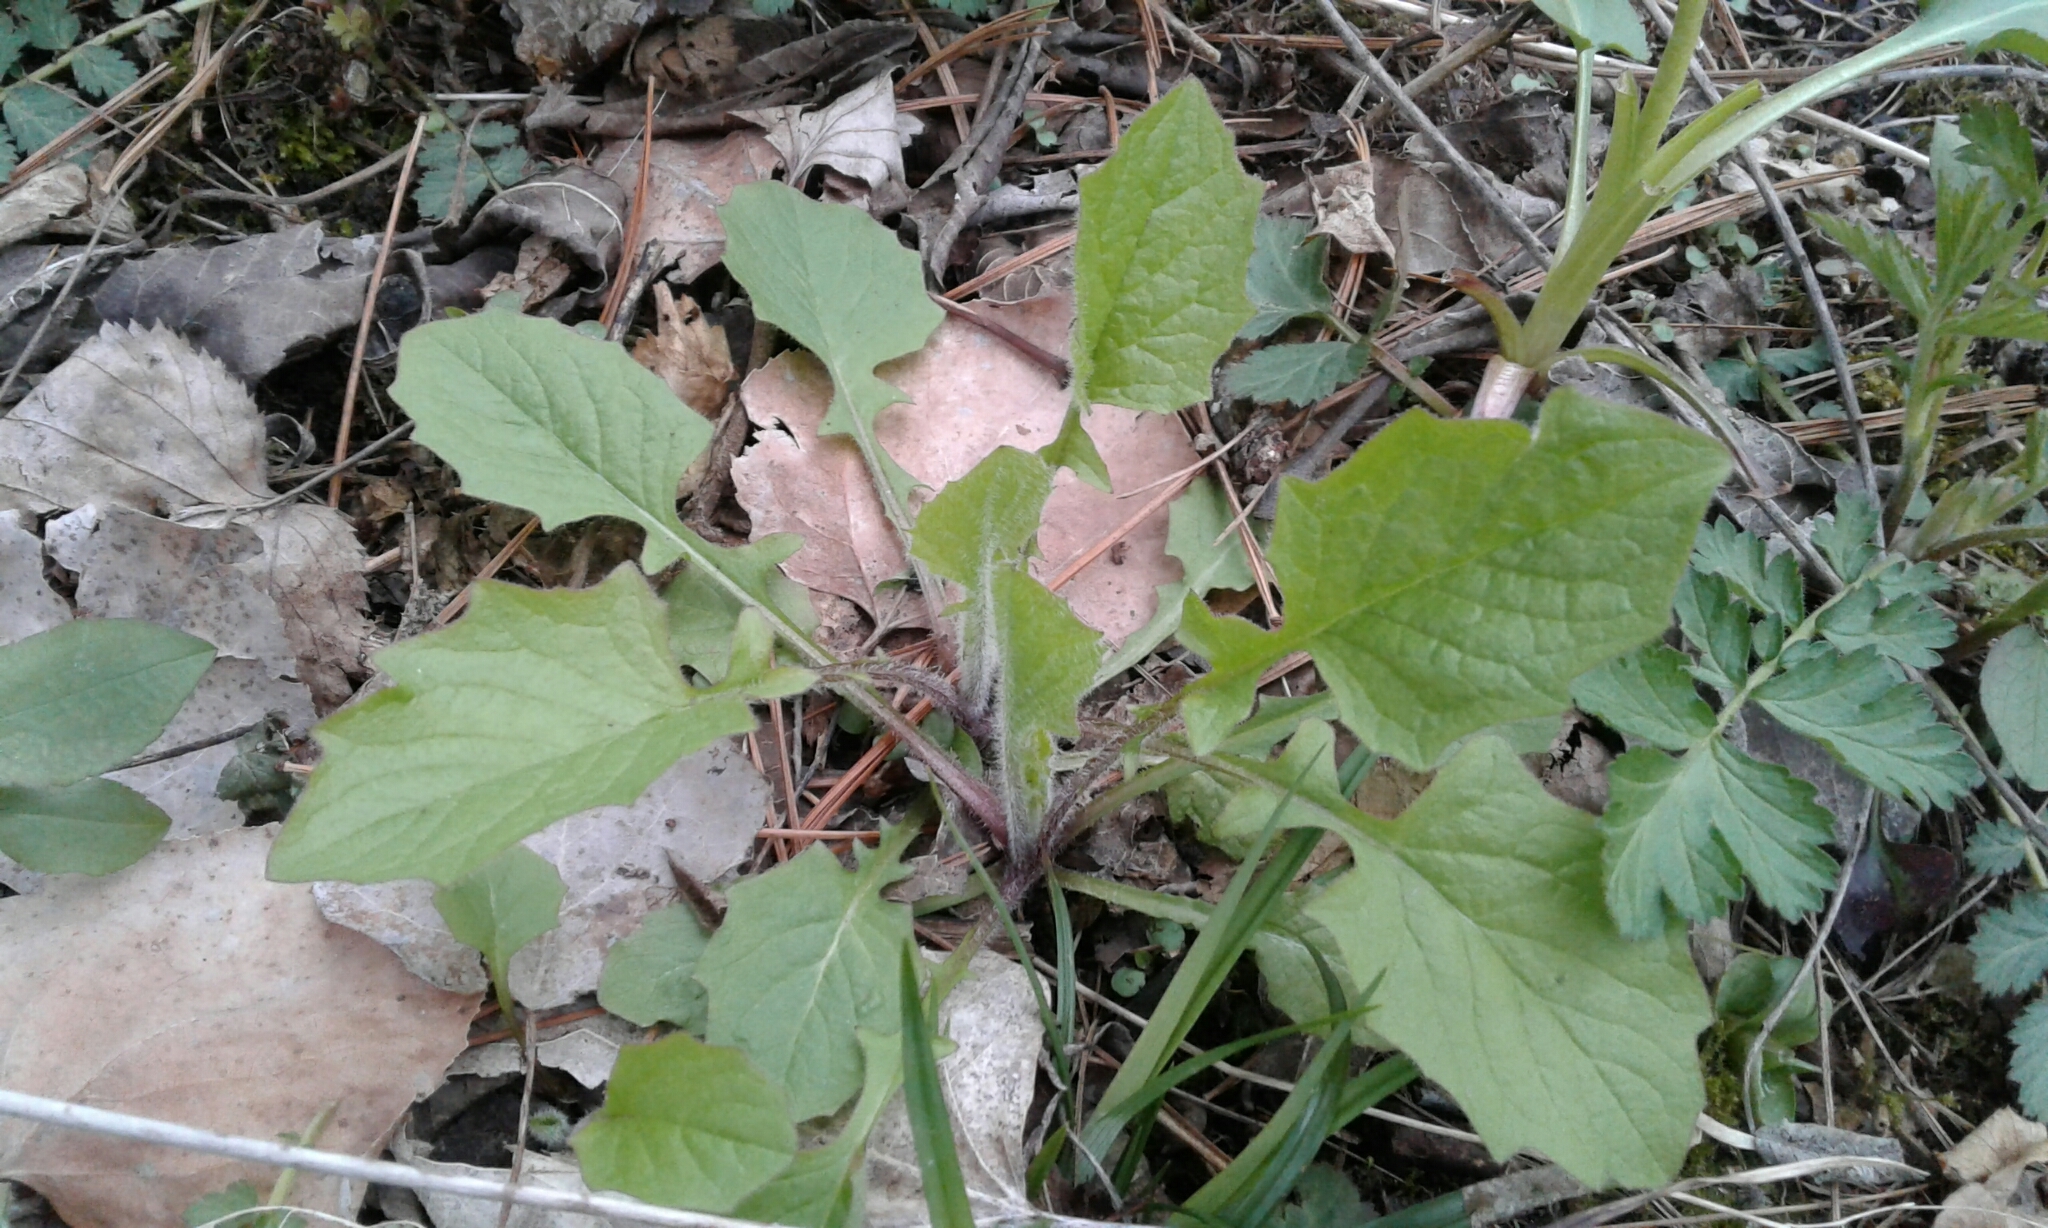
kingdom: Plantae
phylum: Tracheophyta
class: Magnoliopsida
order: Asterales
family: Asteraceae
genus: Lapsana
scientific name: Lapsana communis
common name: Nipplewort
